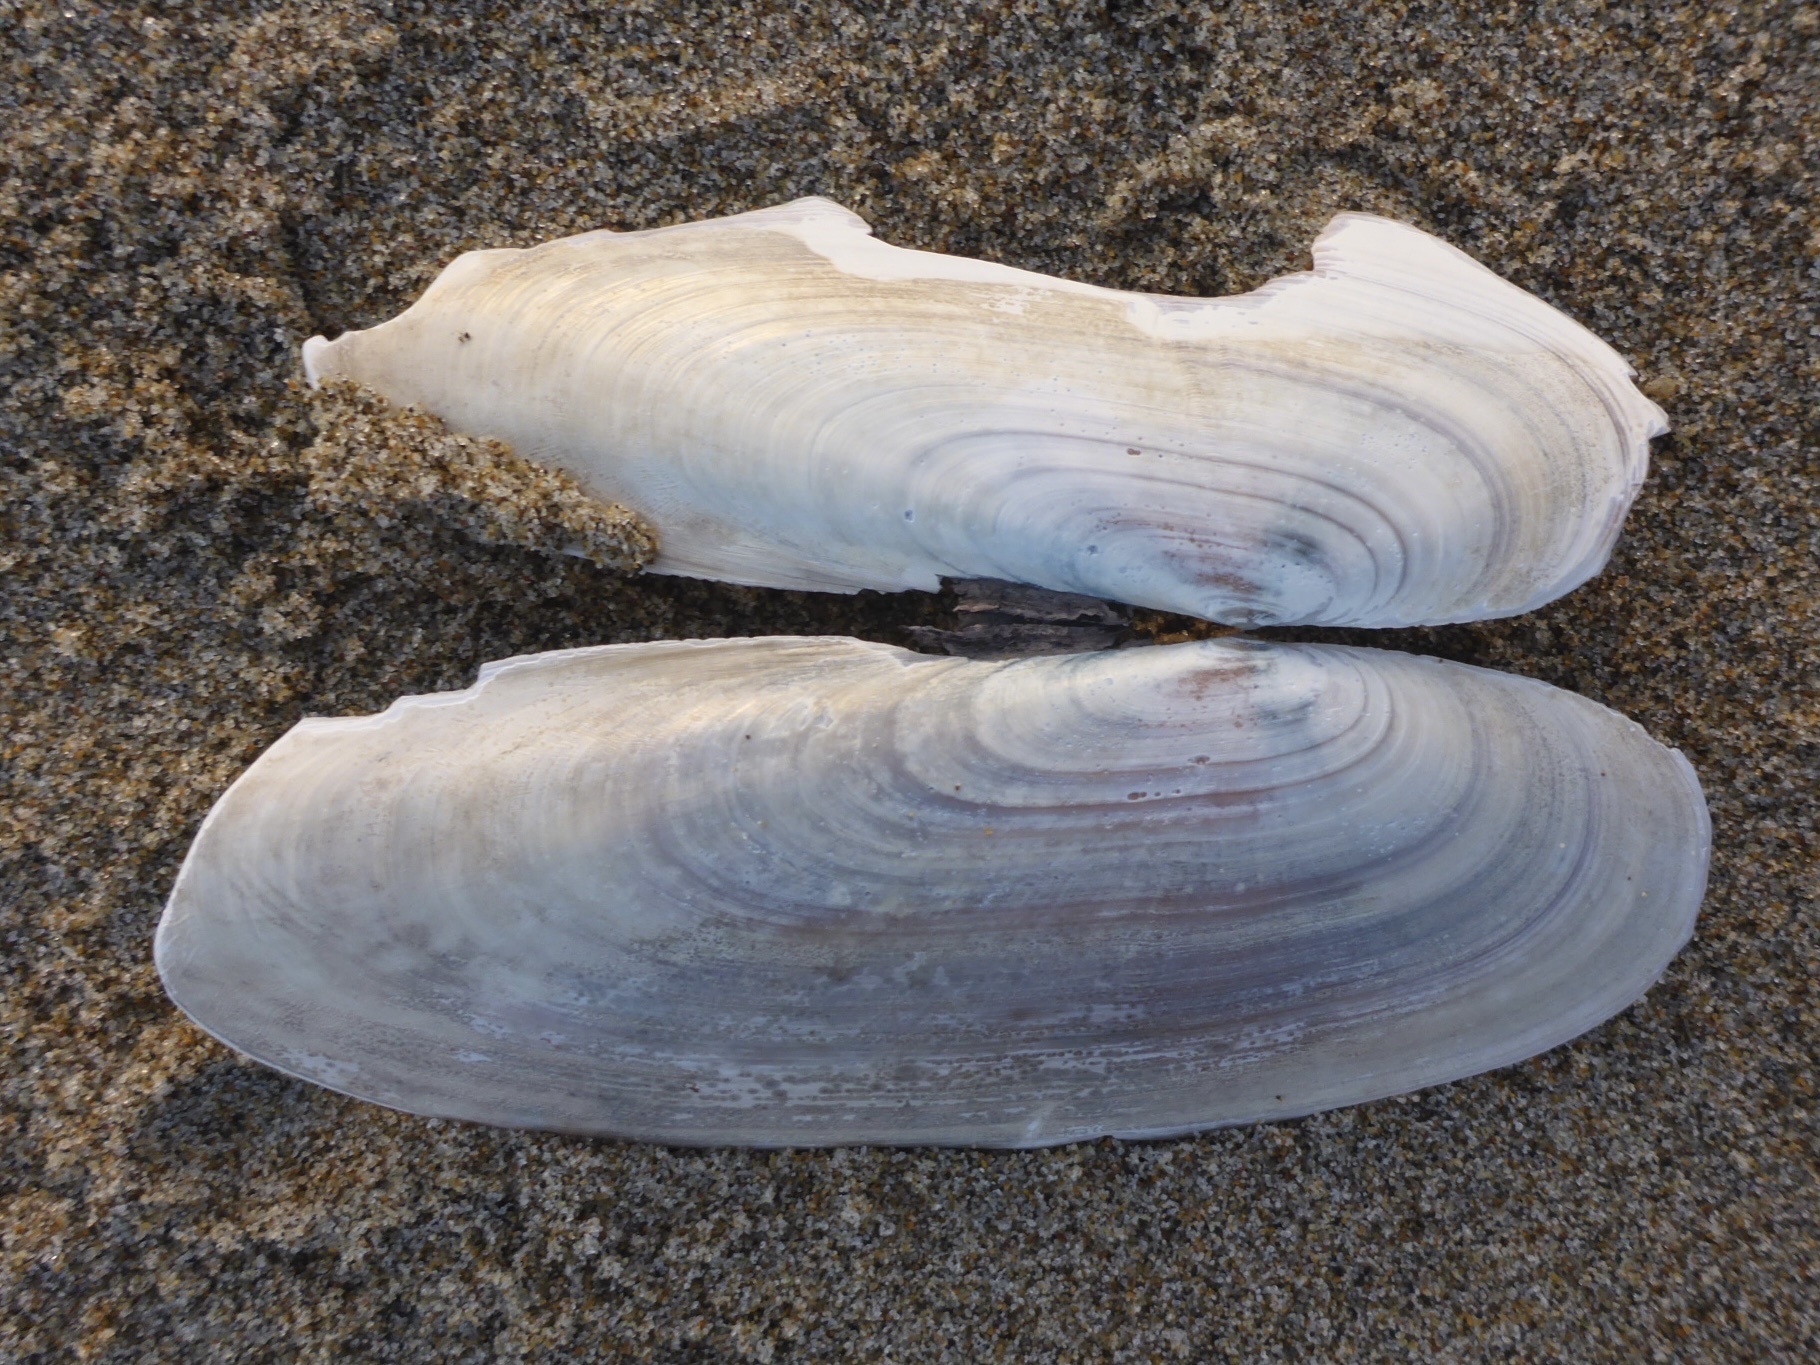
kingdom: Animalia
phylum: Mollusca
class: Bivalvia
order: Adapedonta
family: Pharidae
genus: Siliqua
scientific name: Siliqua patula
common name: Pacific razor clam
